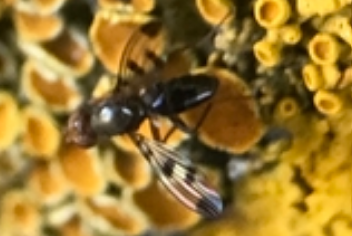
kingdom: Animalia
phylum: Arthropoda
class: Insecta
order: Diptera
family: Opomyzidae
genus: Geomyza
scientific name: Geomyza tripunctata
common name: Cereal fly
